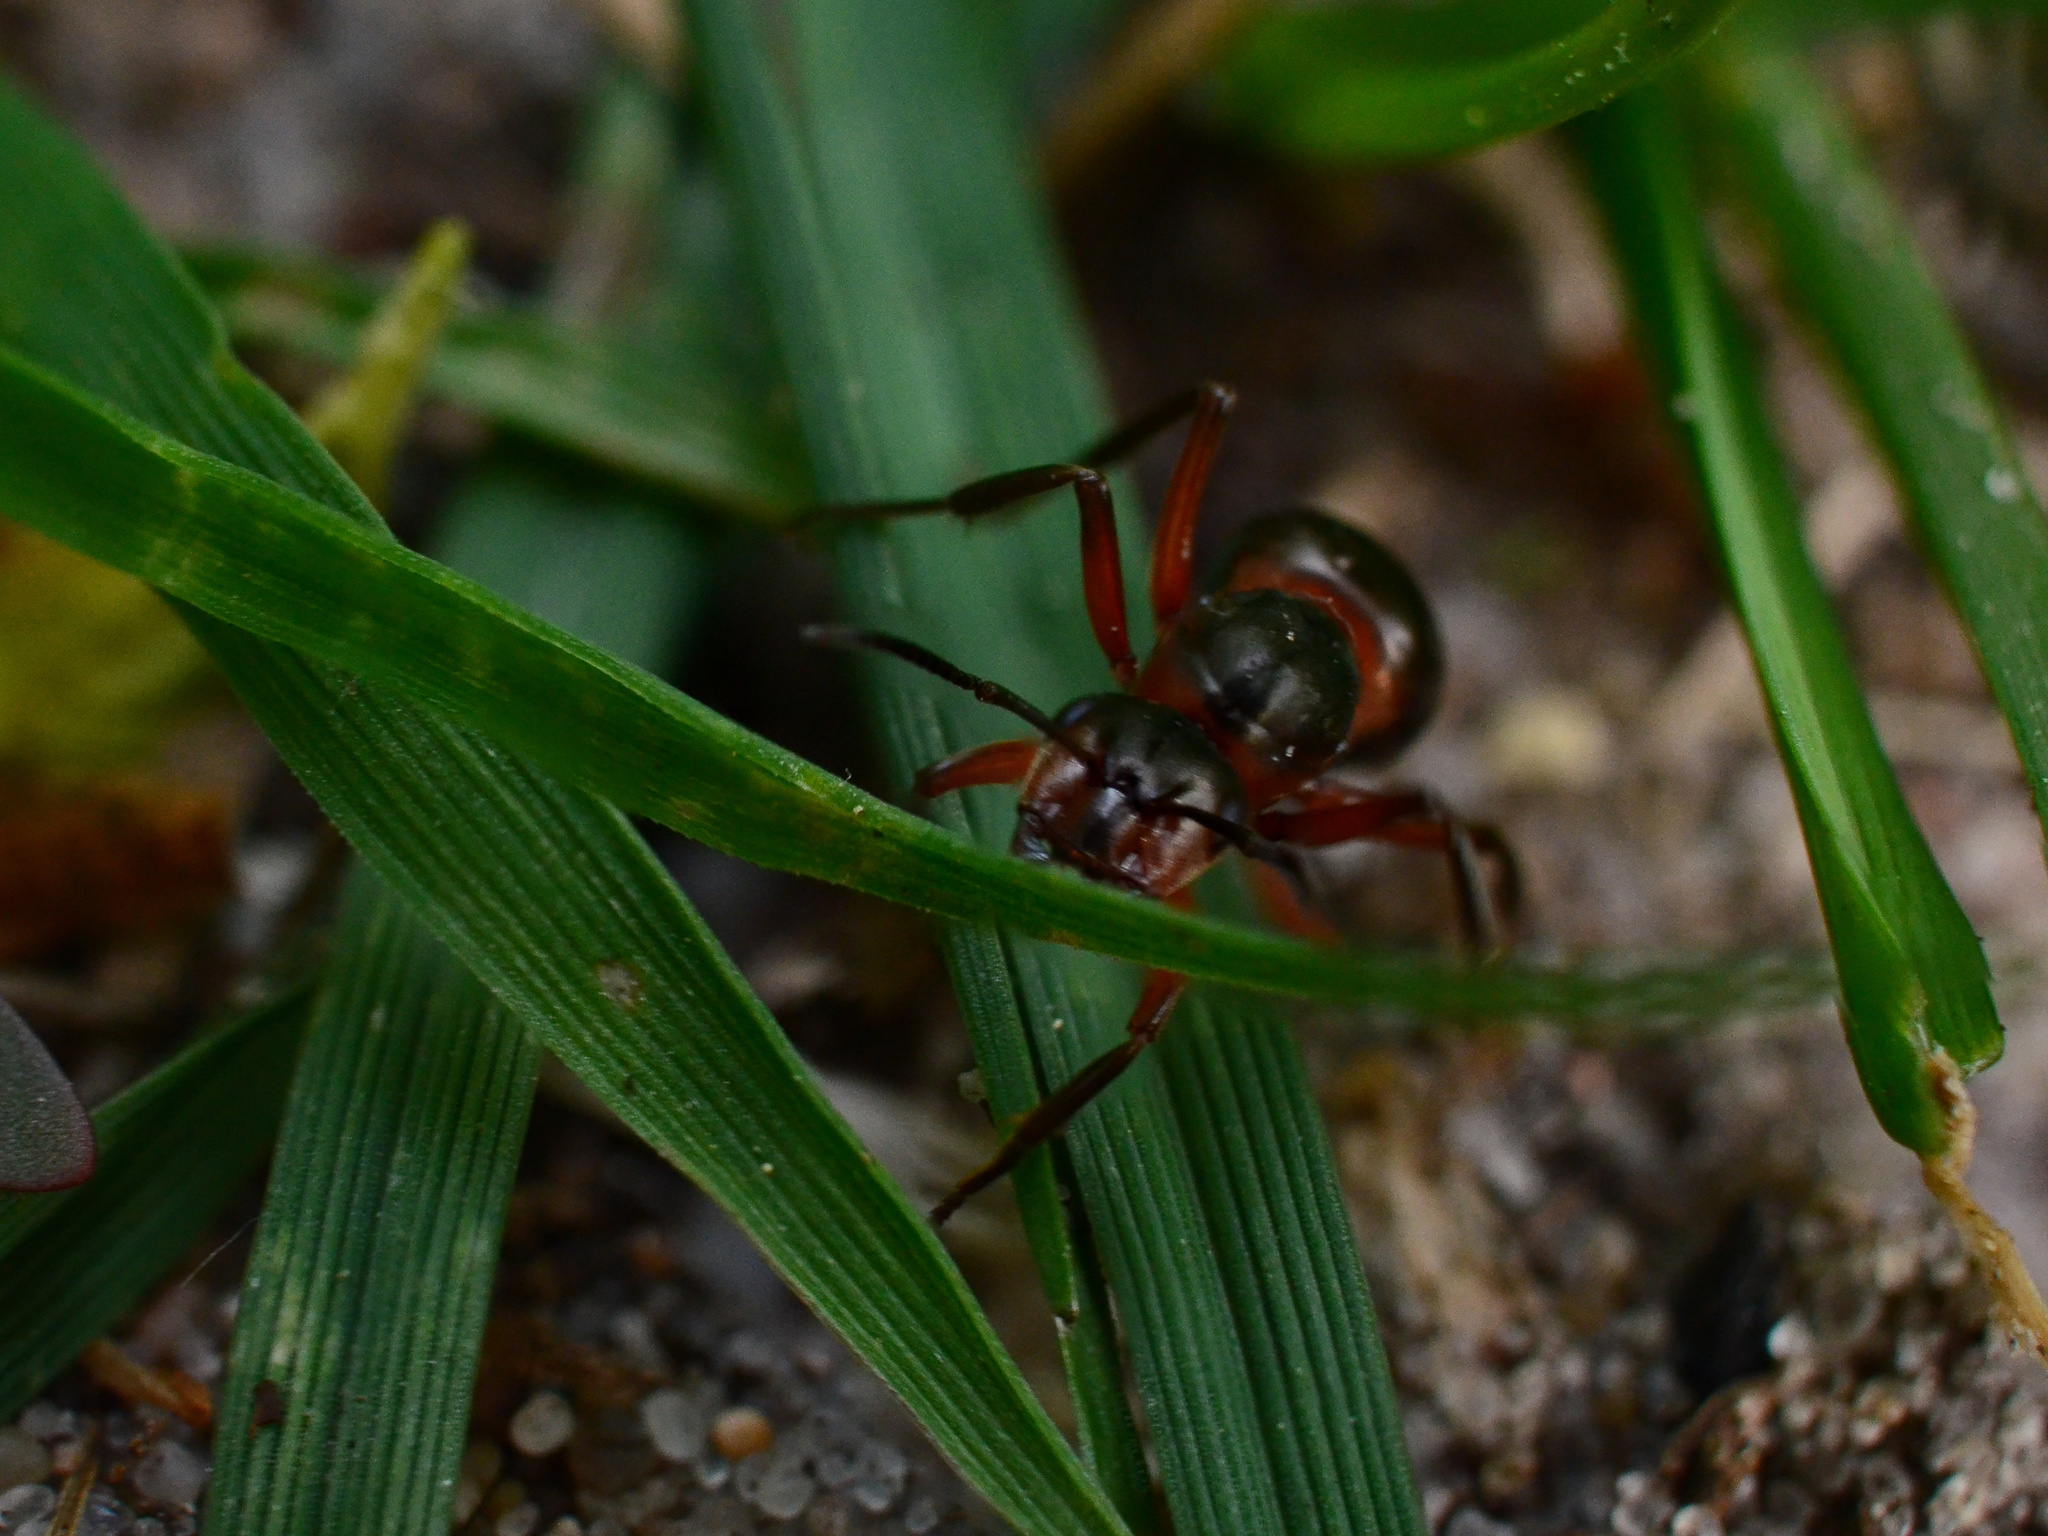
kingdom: Animalia
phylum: Arthropoda
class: Insecta
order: Hymenoptera
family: Formicidae
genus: Formica
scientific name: Formica
